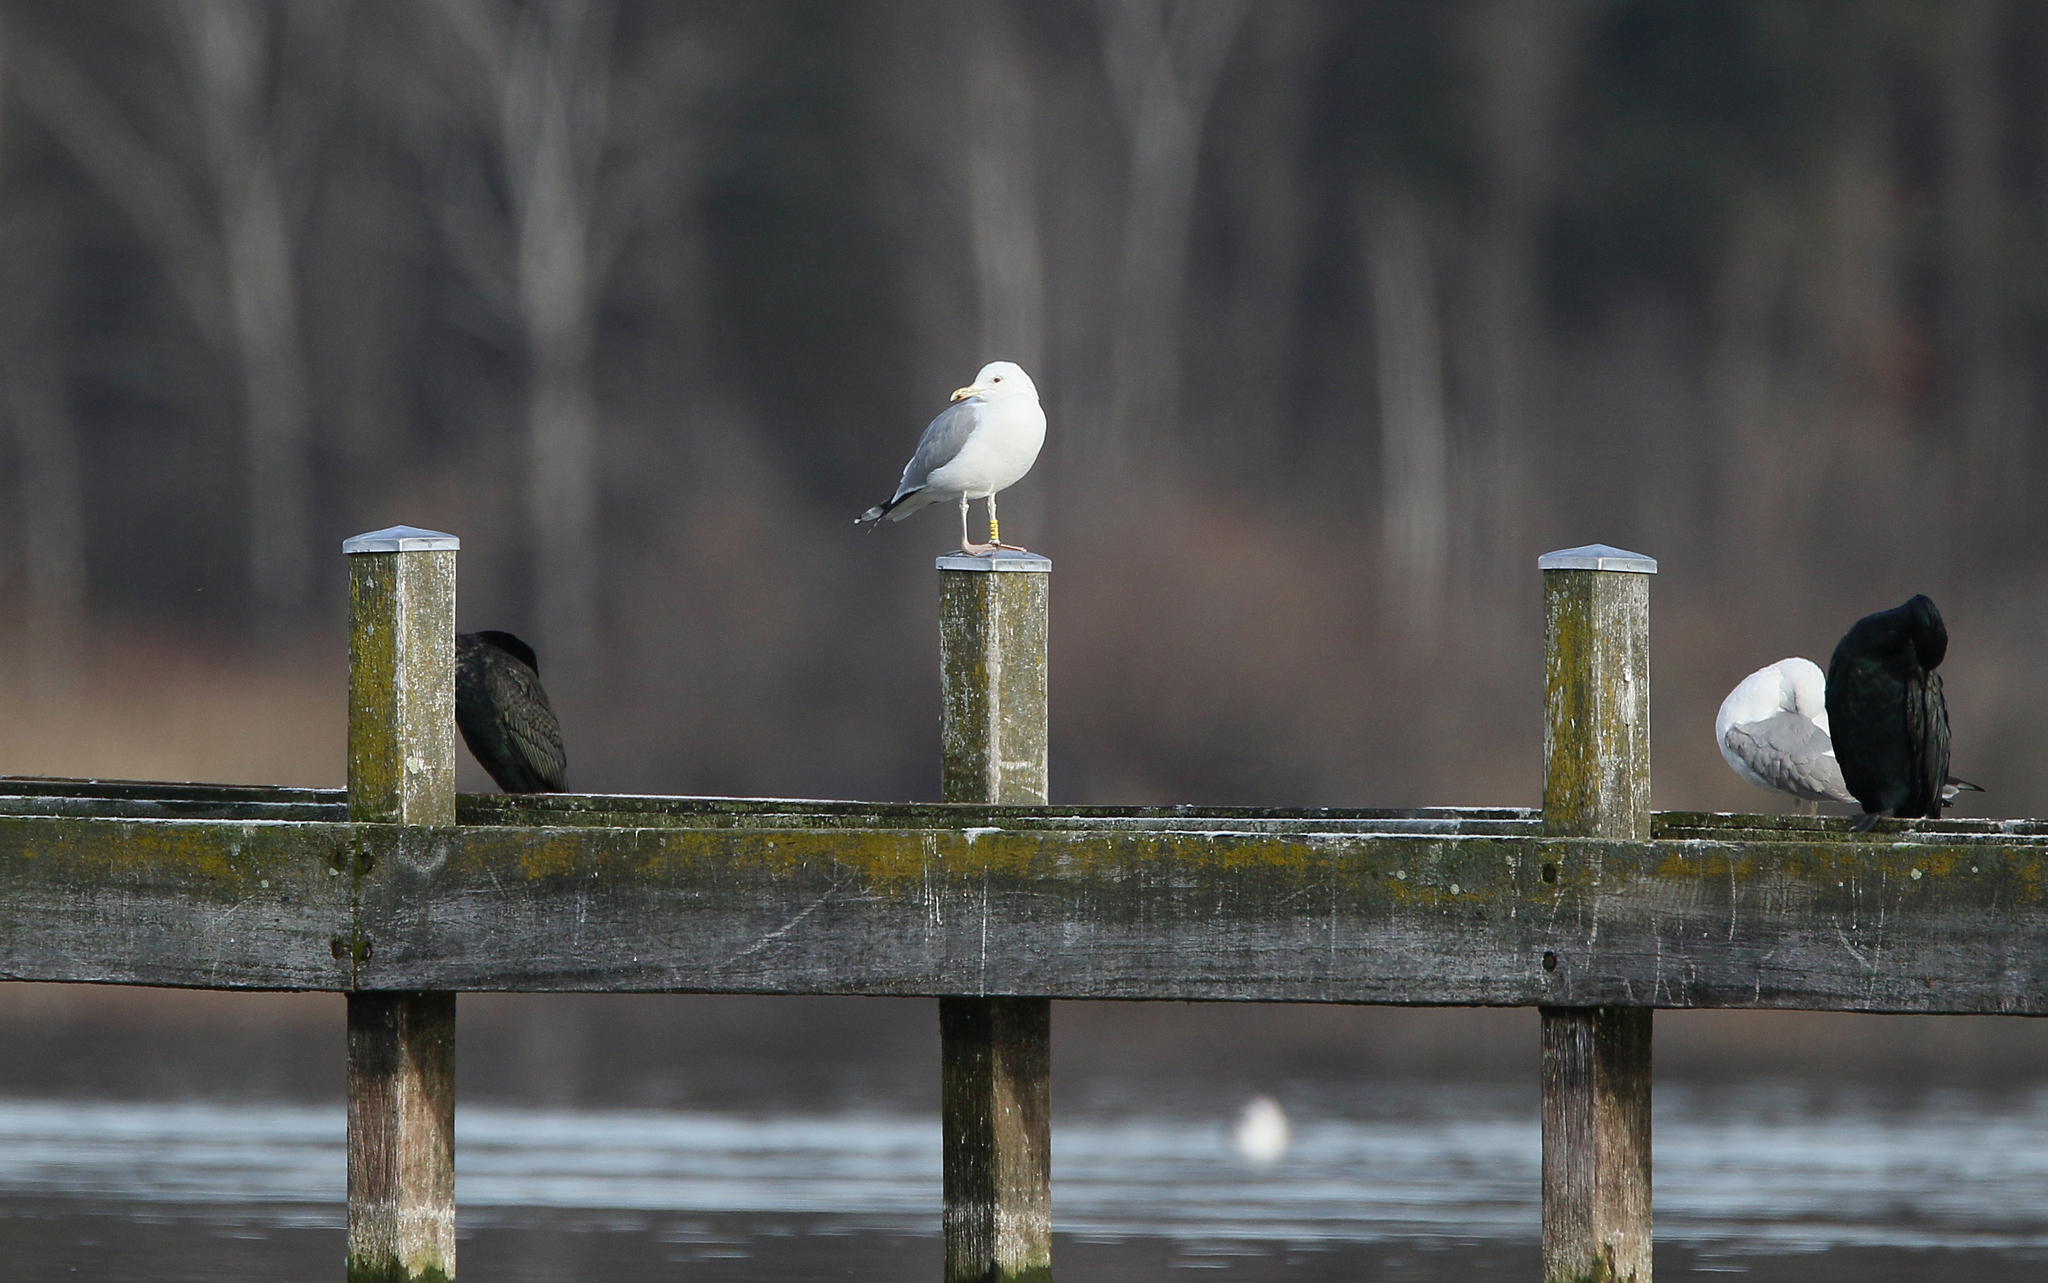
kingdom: Animalia
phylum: Chordata
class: Aves
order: Charadriiformes
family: Laridae
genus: Larus
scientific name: Larus cachinnans
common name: Caspian gull
